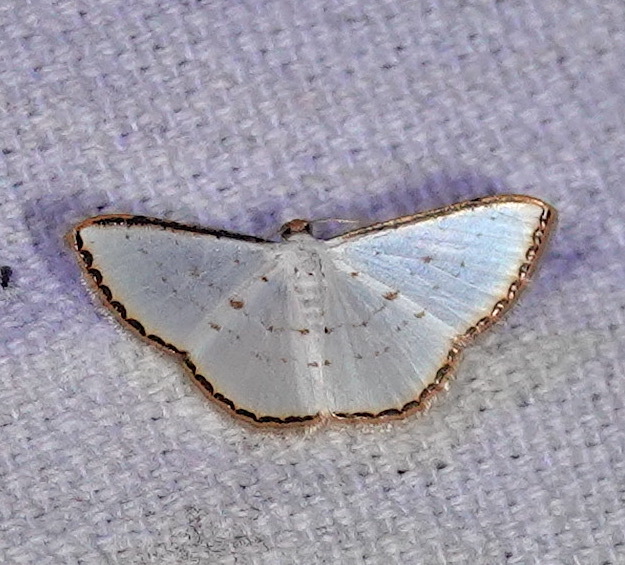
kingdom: Animalia
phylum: Arthropoda
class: Insecta
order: Lepidoptera
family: Geometridae
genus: Leuciris
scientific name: Leuciris fimbriaria
